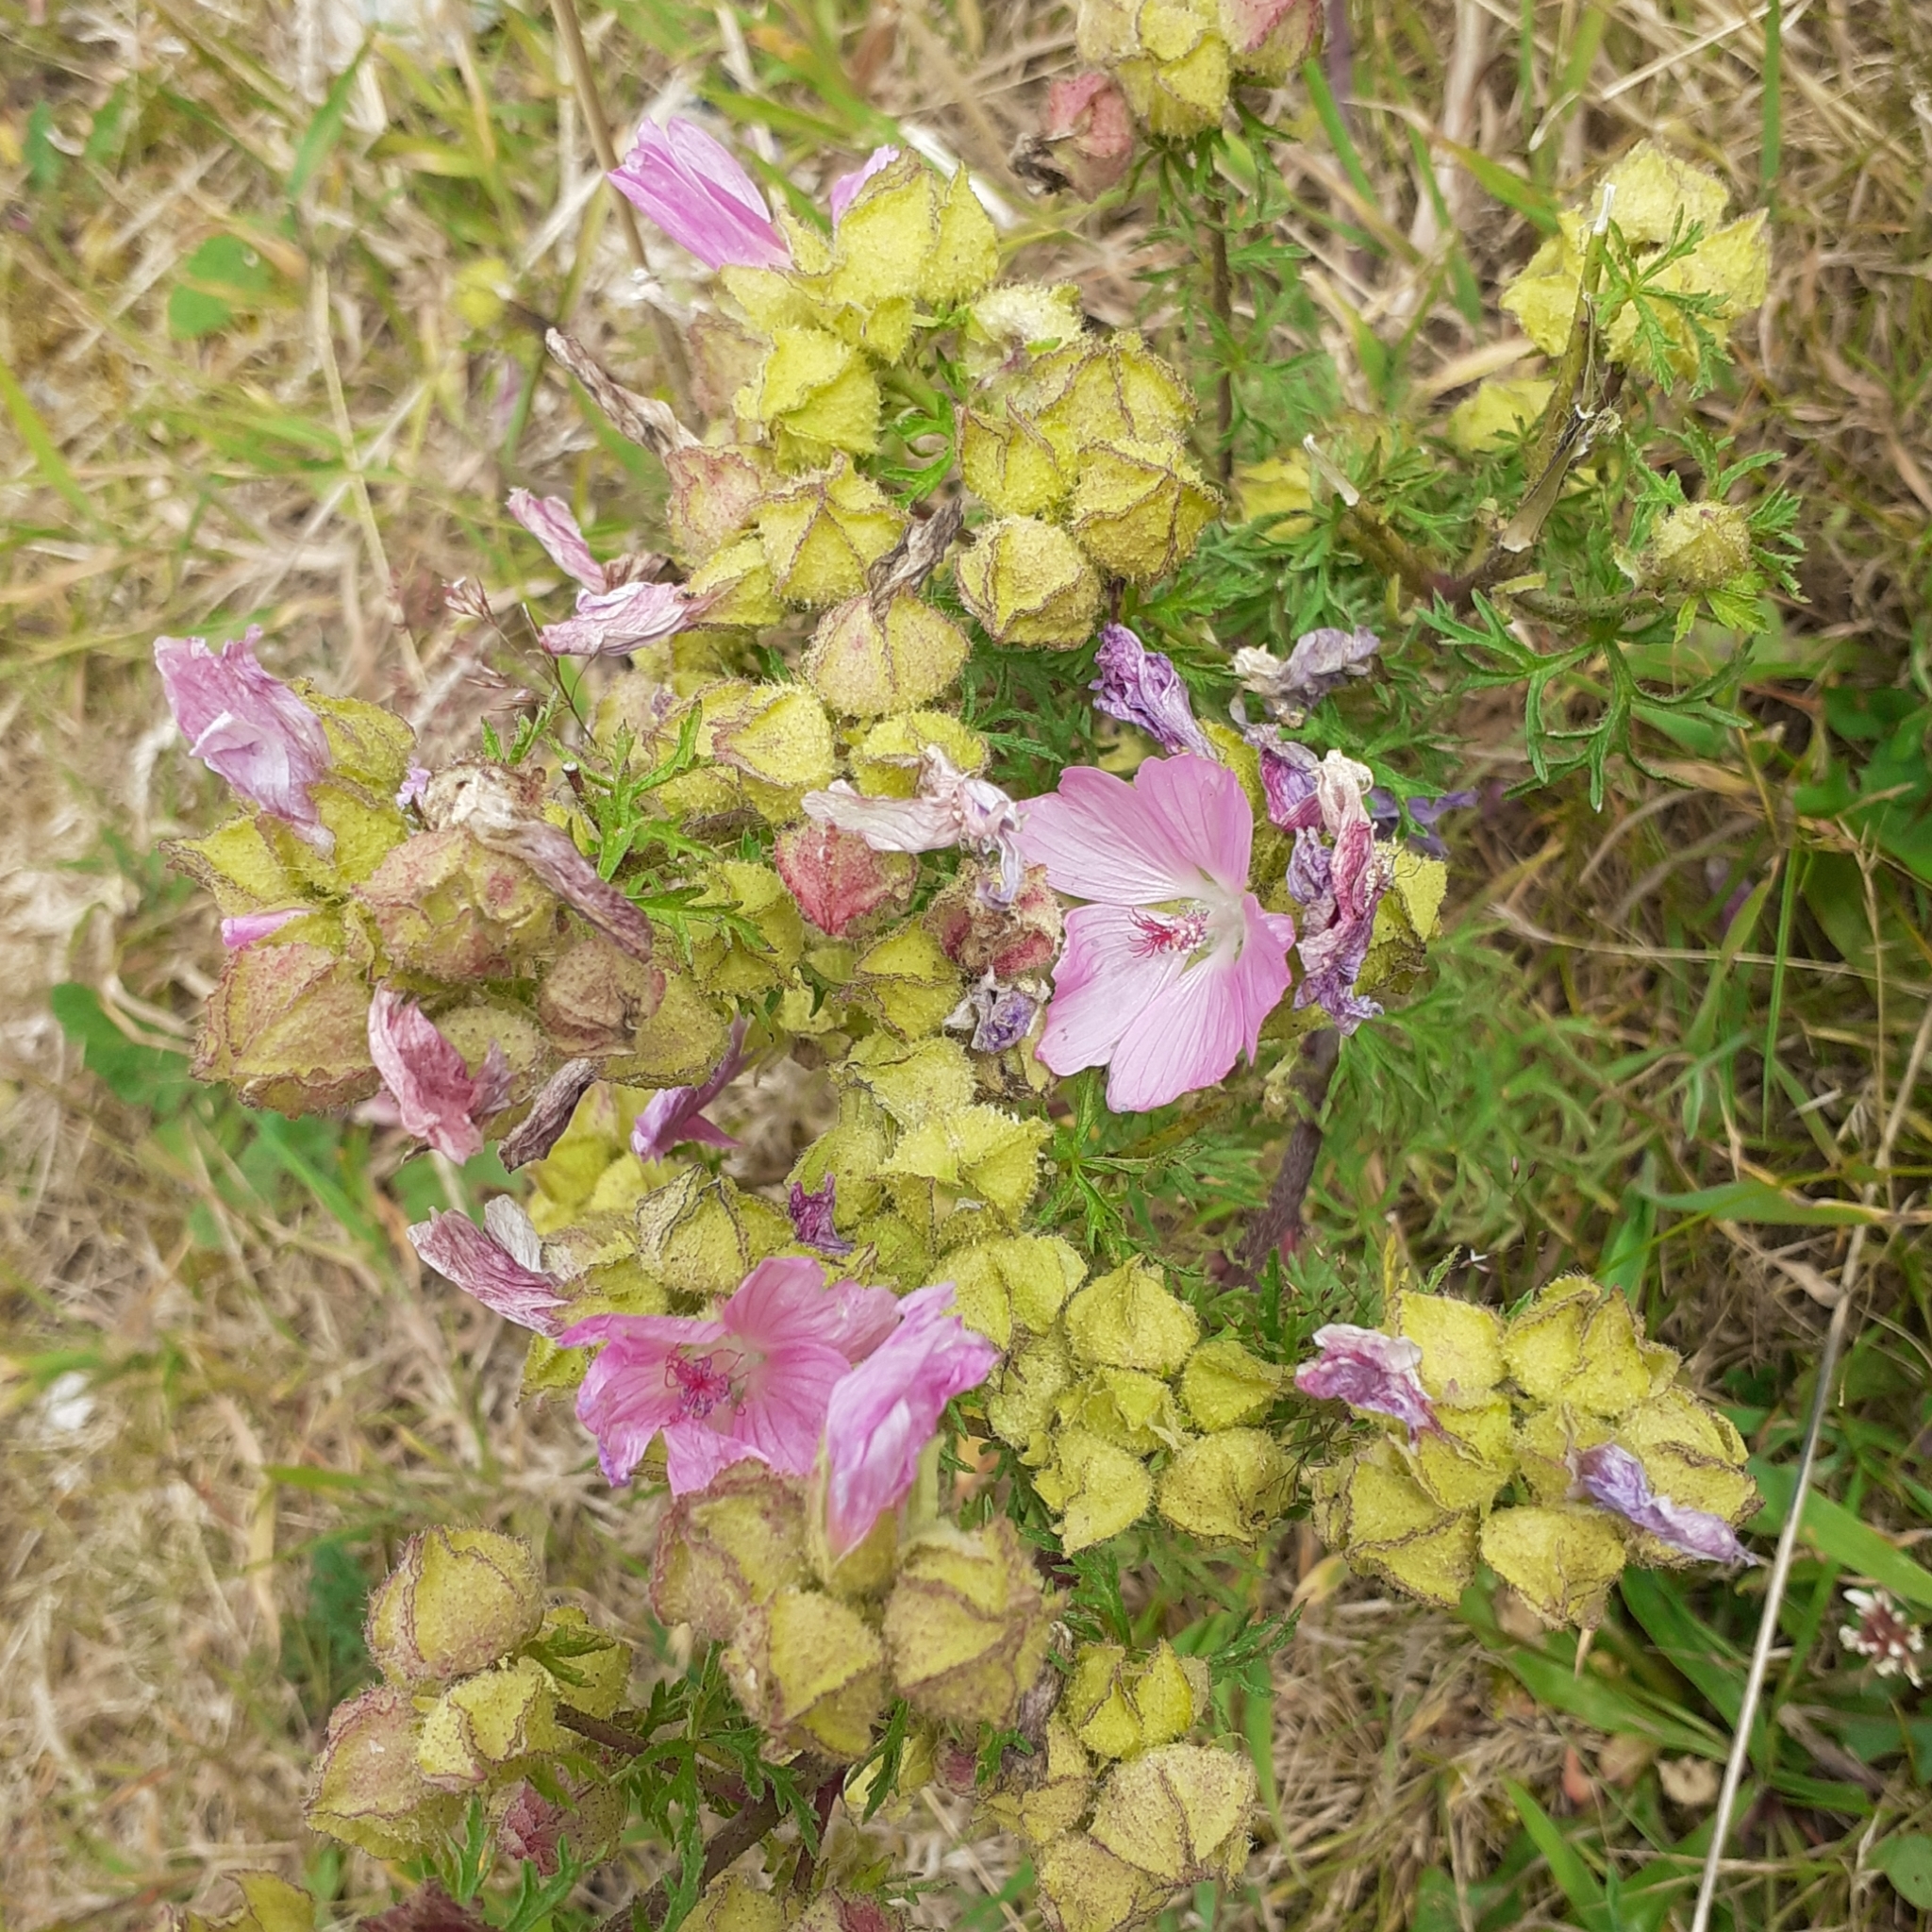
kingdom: Plantae
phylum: Tracheophyta
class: Magnoliopsida
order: Malvales
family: Malvaceae
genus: Malva
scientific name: Malva moschata
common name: Musk mallow
